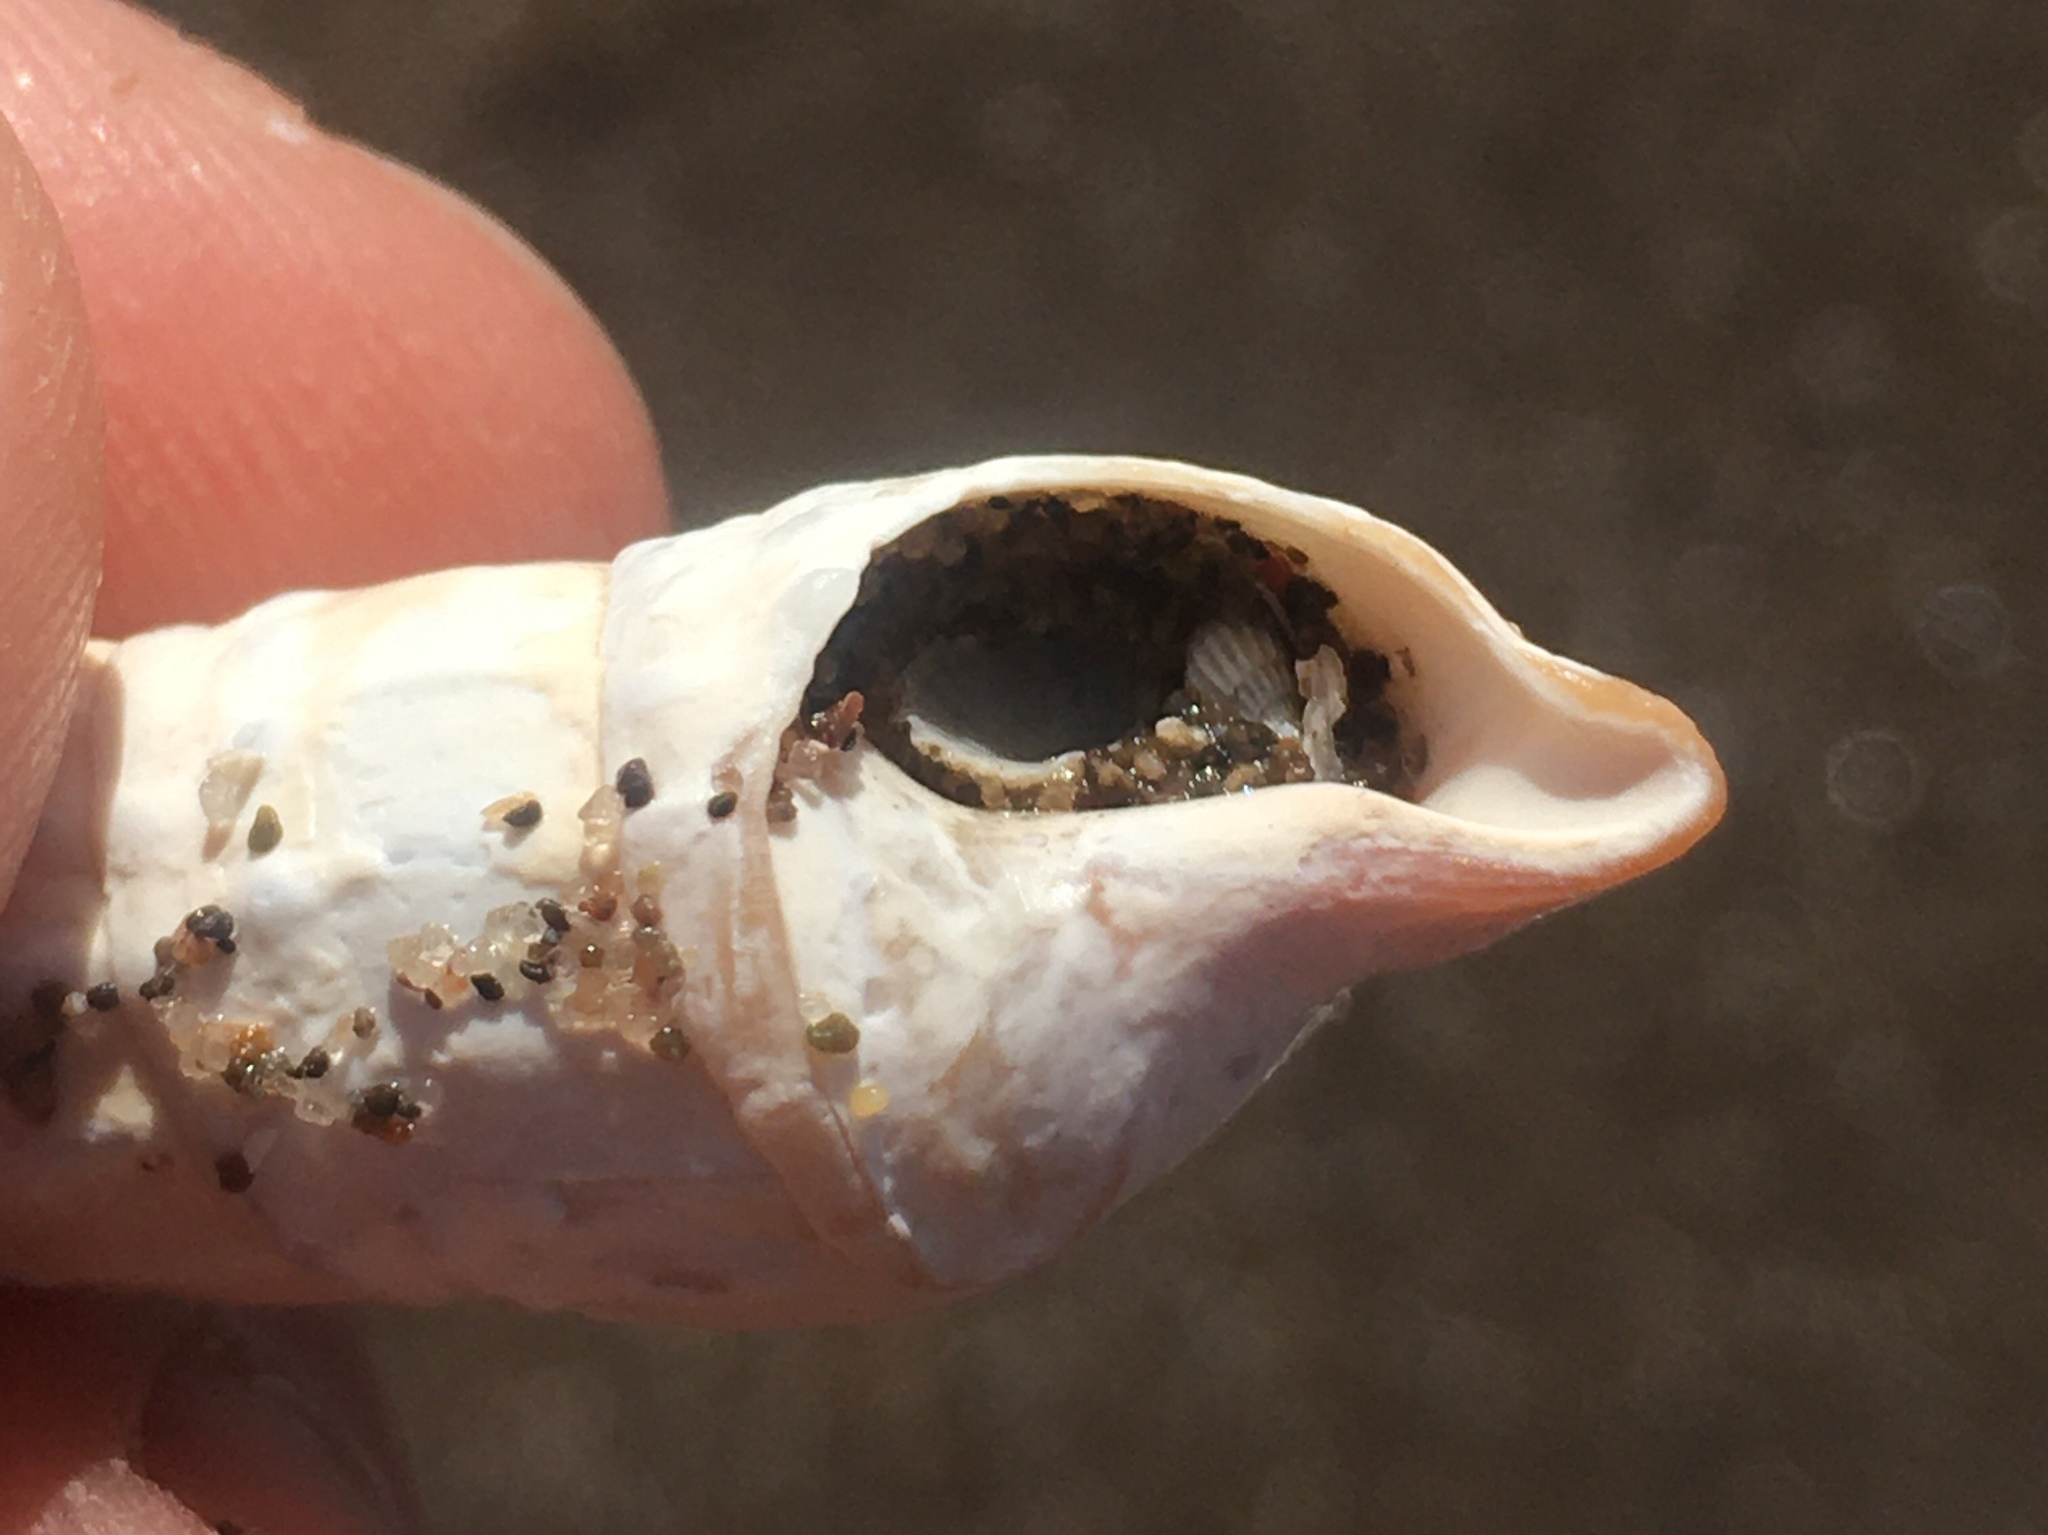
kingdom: Animalia
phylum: Mollusca
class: Gastropoda
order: Neogastropoda
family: Terebridae
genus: Duplicaria
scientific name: Duplicaria gemmulata
